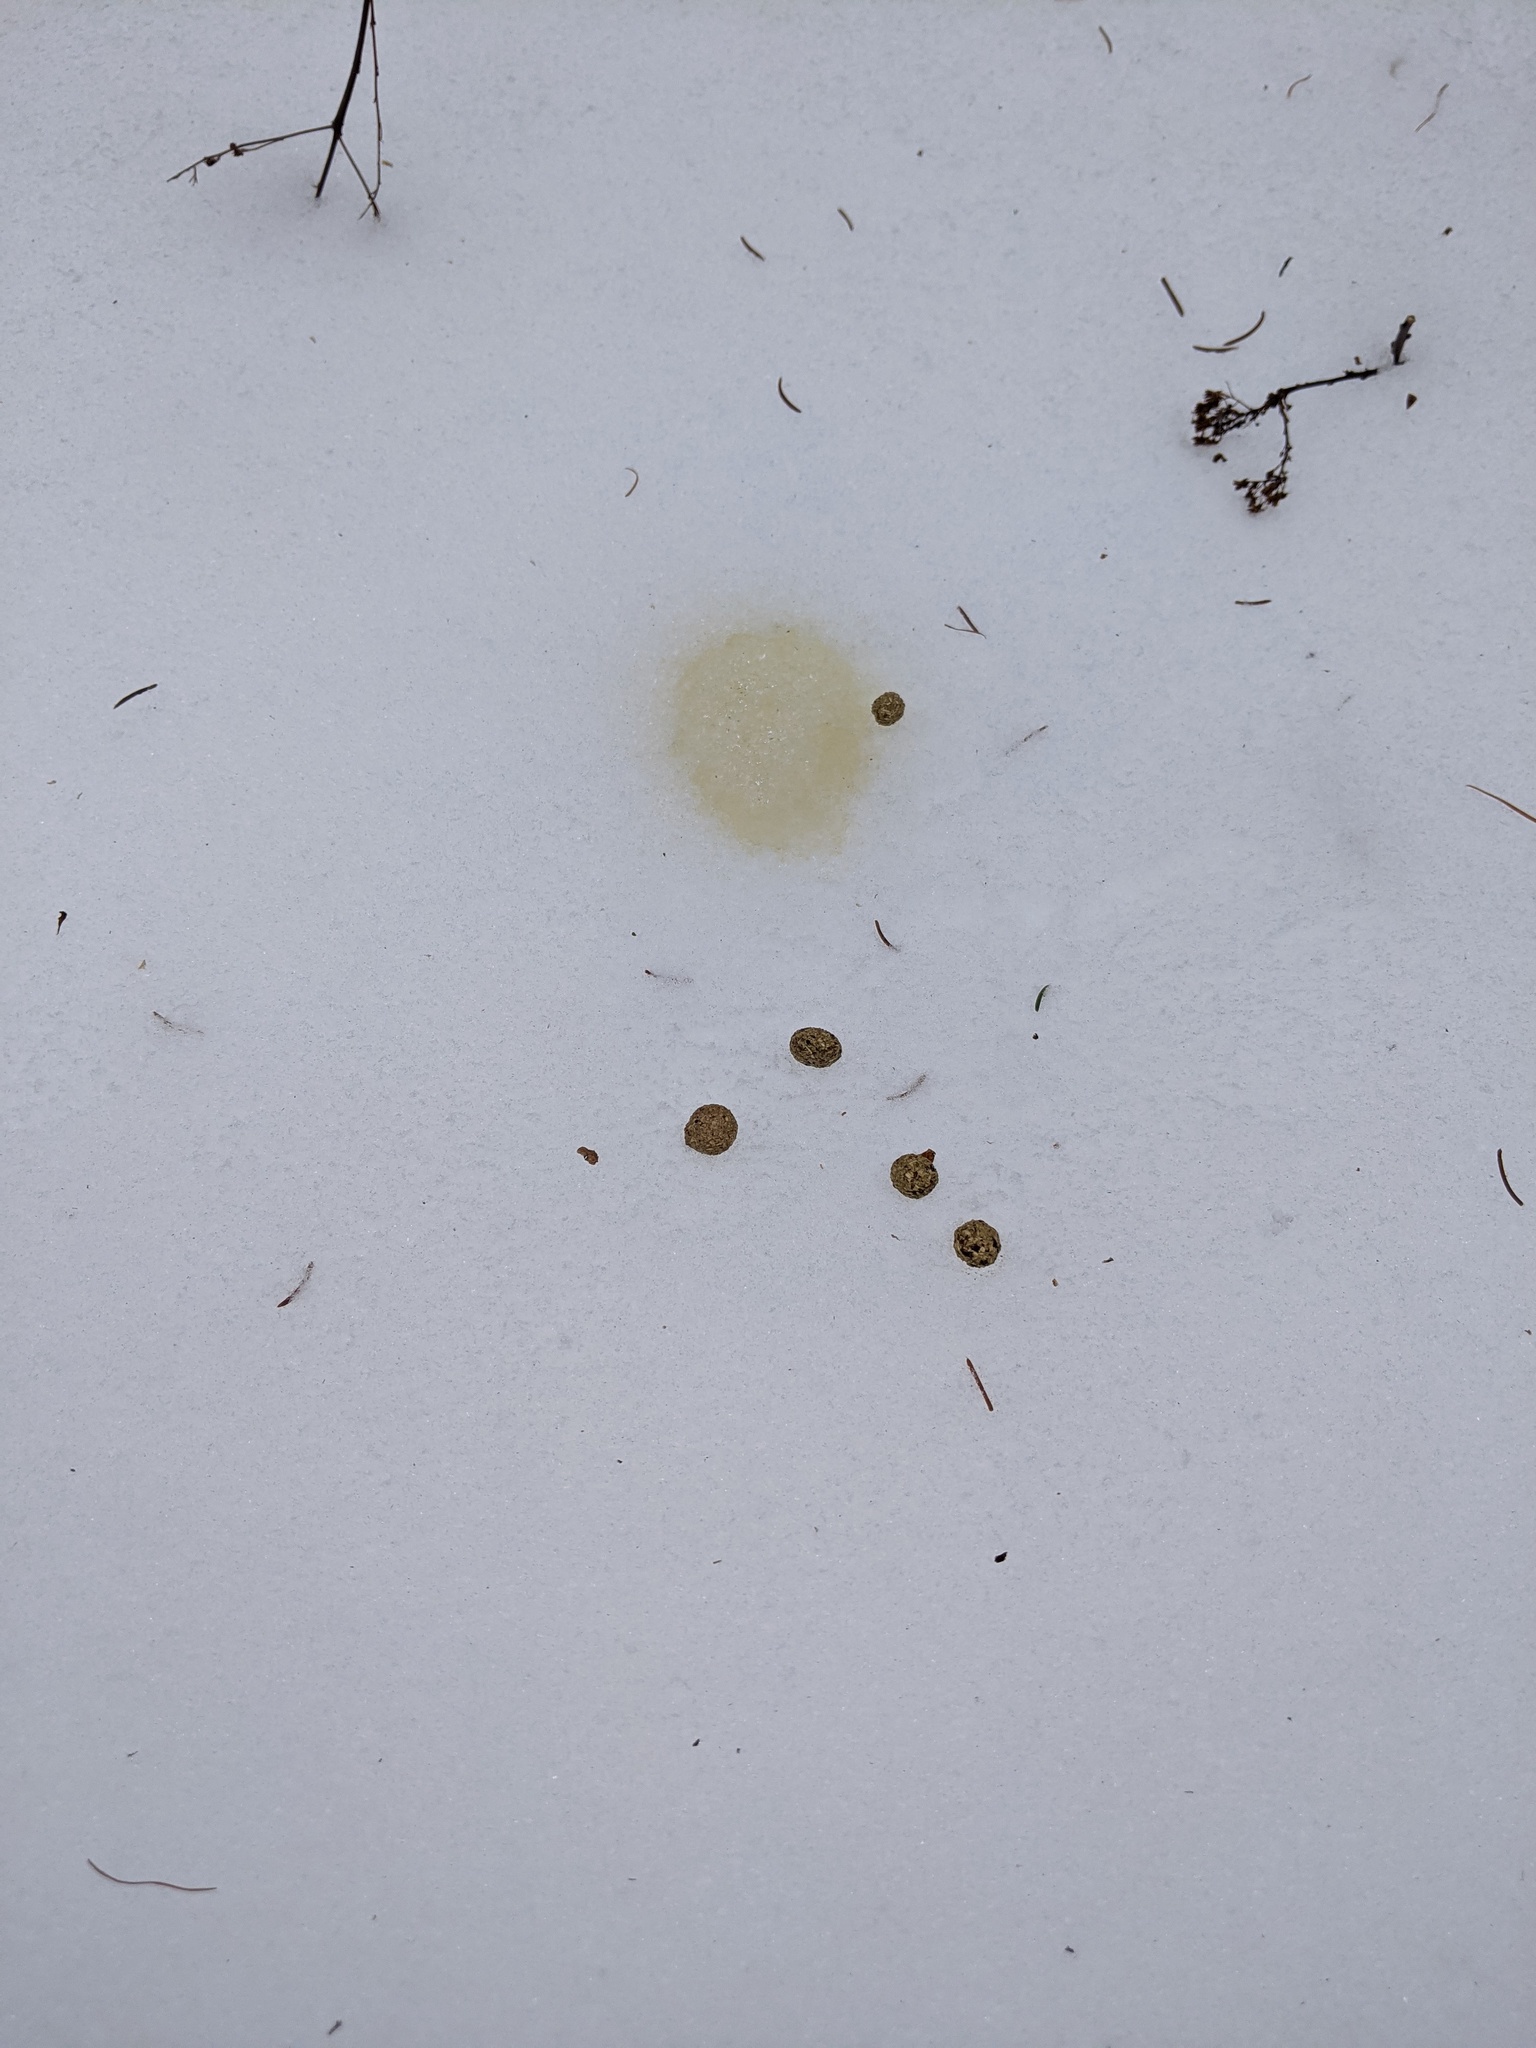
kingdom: Animalia
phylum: Chordata
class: Mammalia
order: Lagomorpha
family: Leporidae
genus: Lepus
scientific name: Lepus americanus
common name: Snowshoe hare
